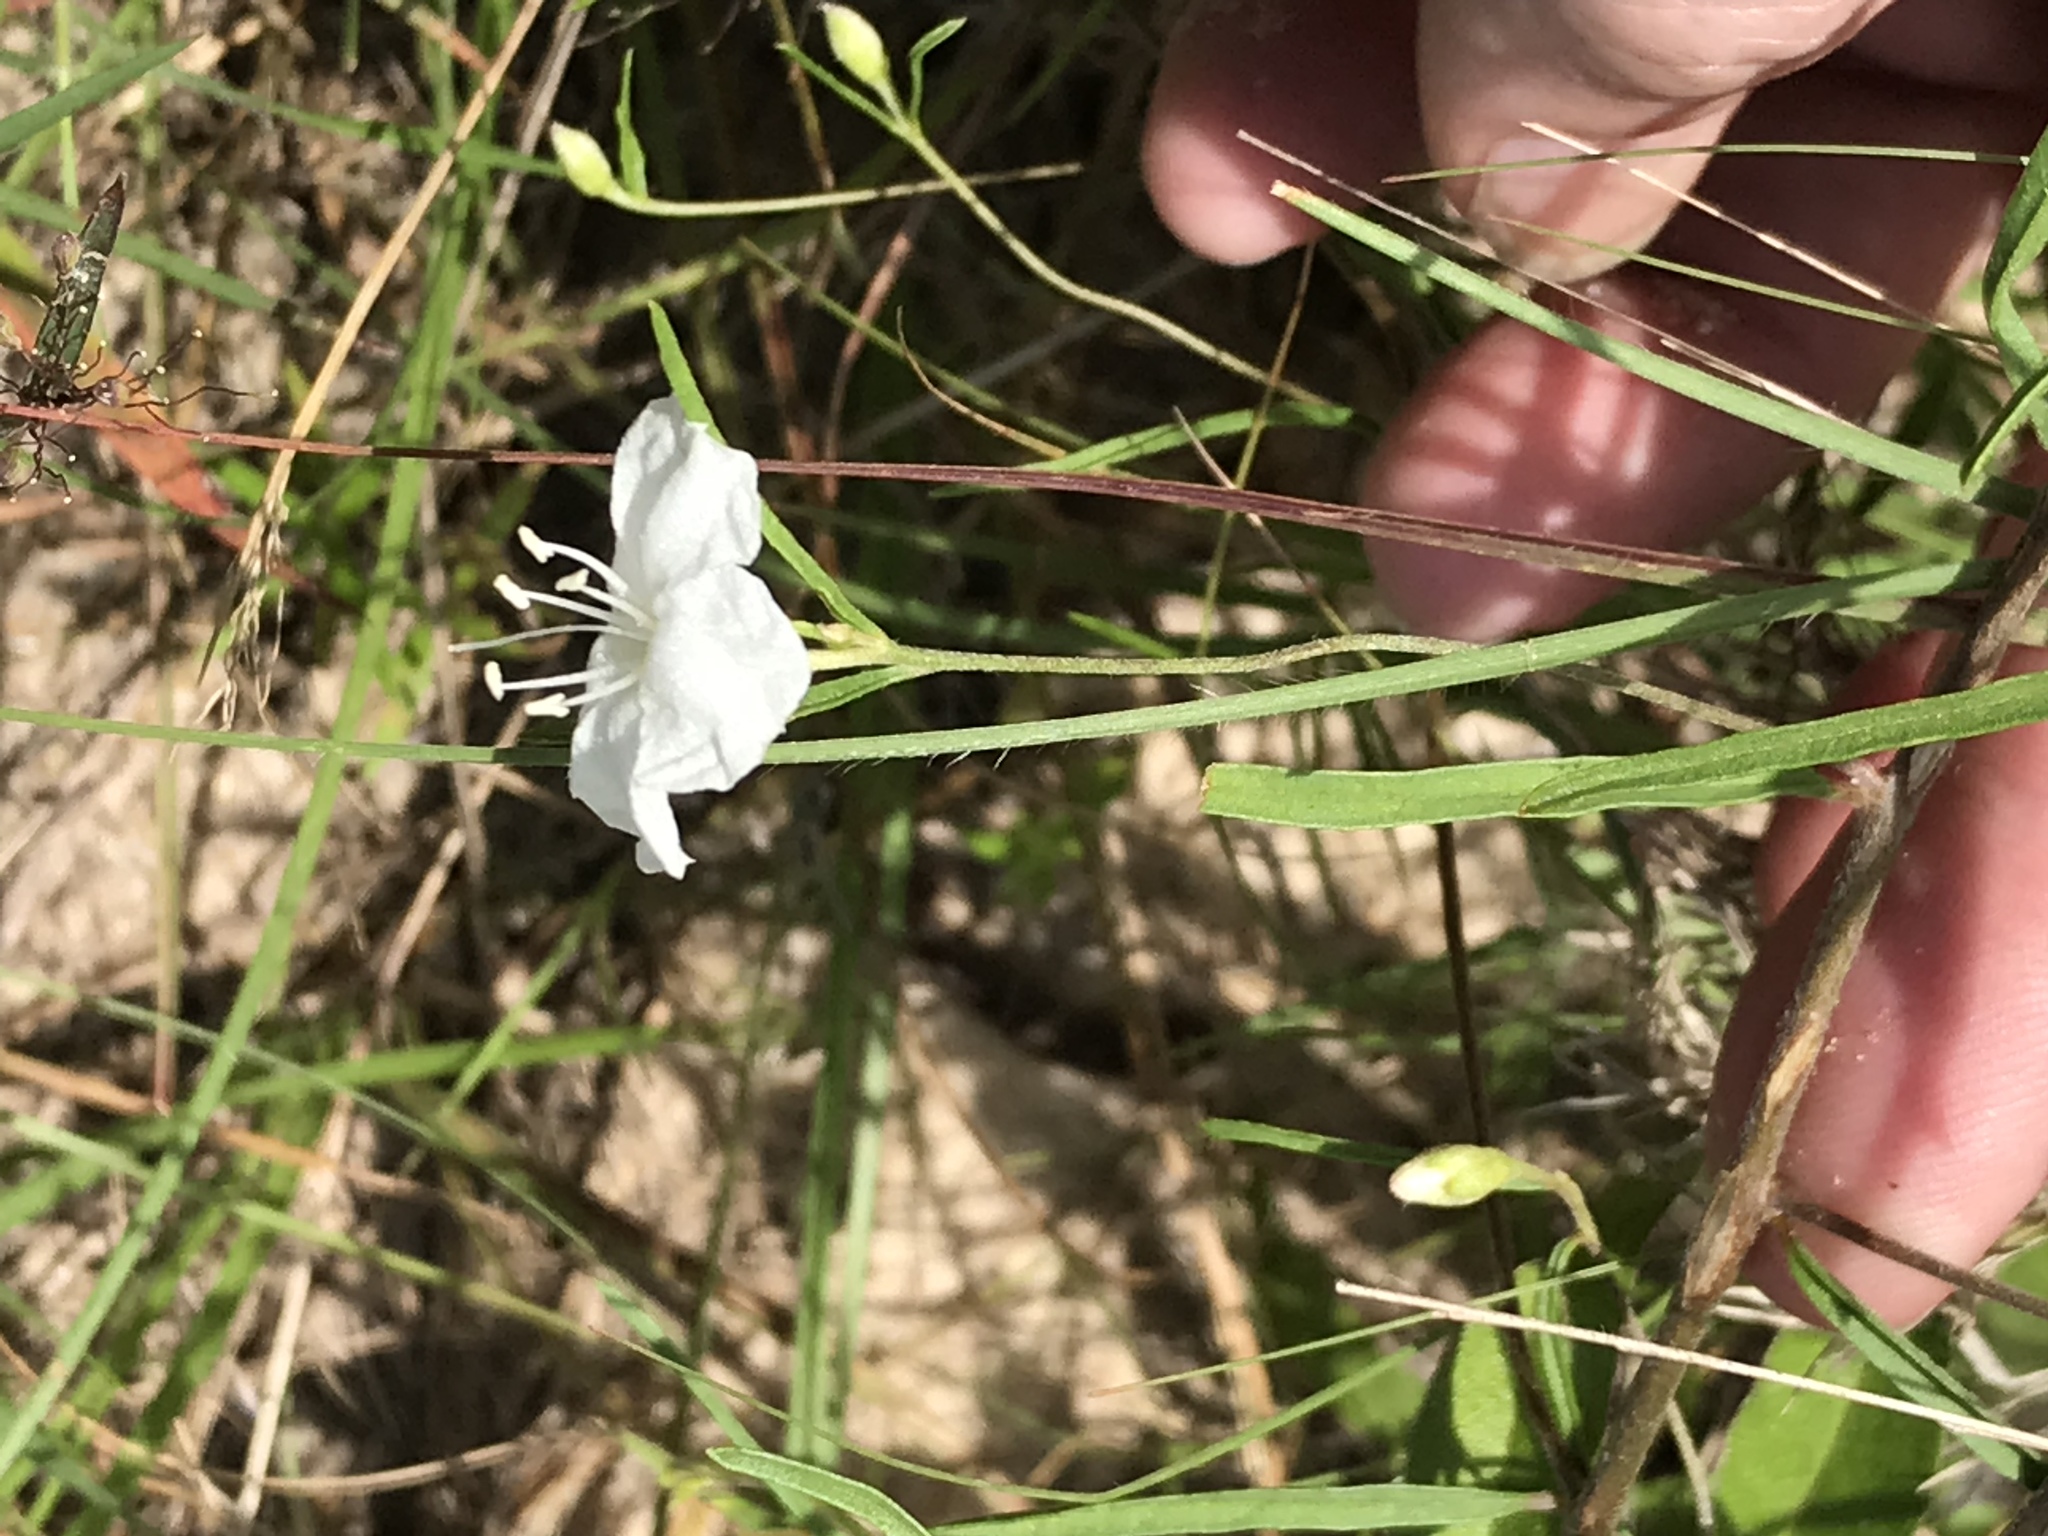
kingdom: Plantae
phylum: Tracheophyta
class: Magnoliopsida
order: Solanales
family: Convolvulaceae
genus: Stylisma
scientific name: Stylisma pickeringii
